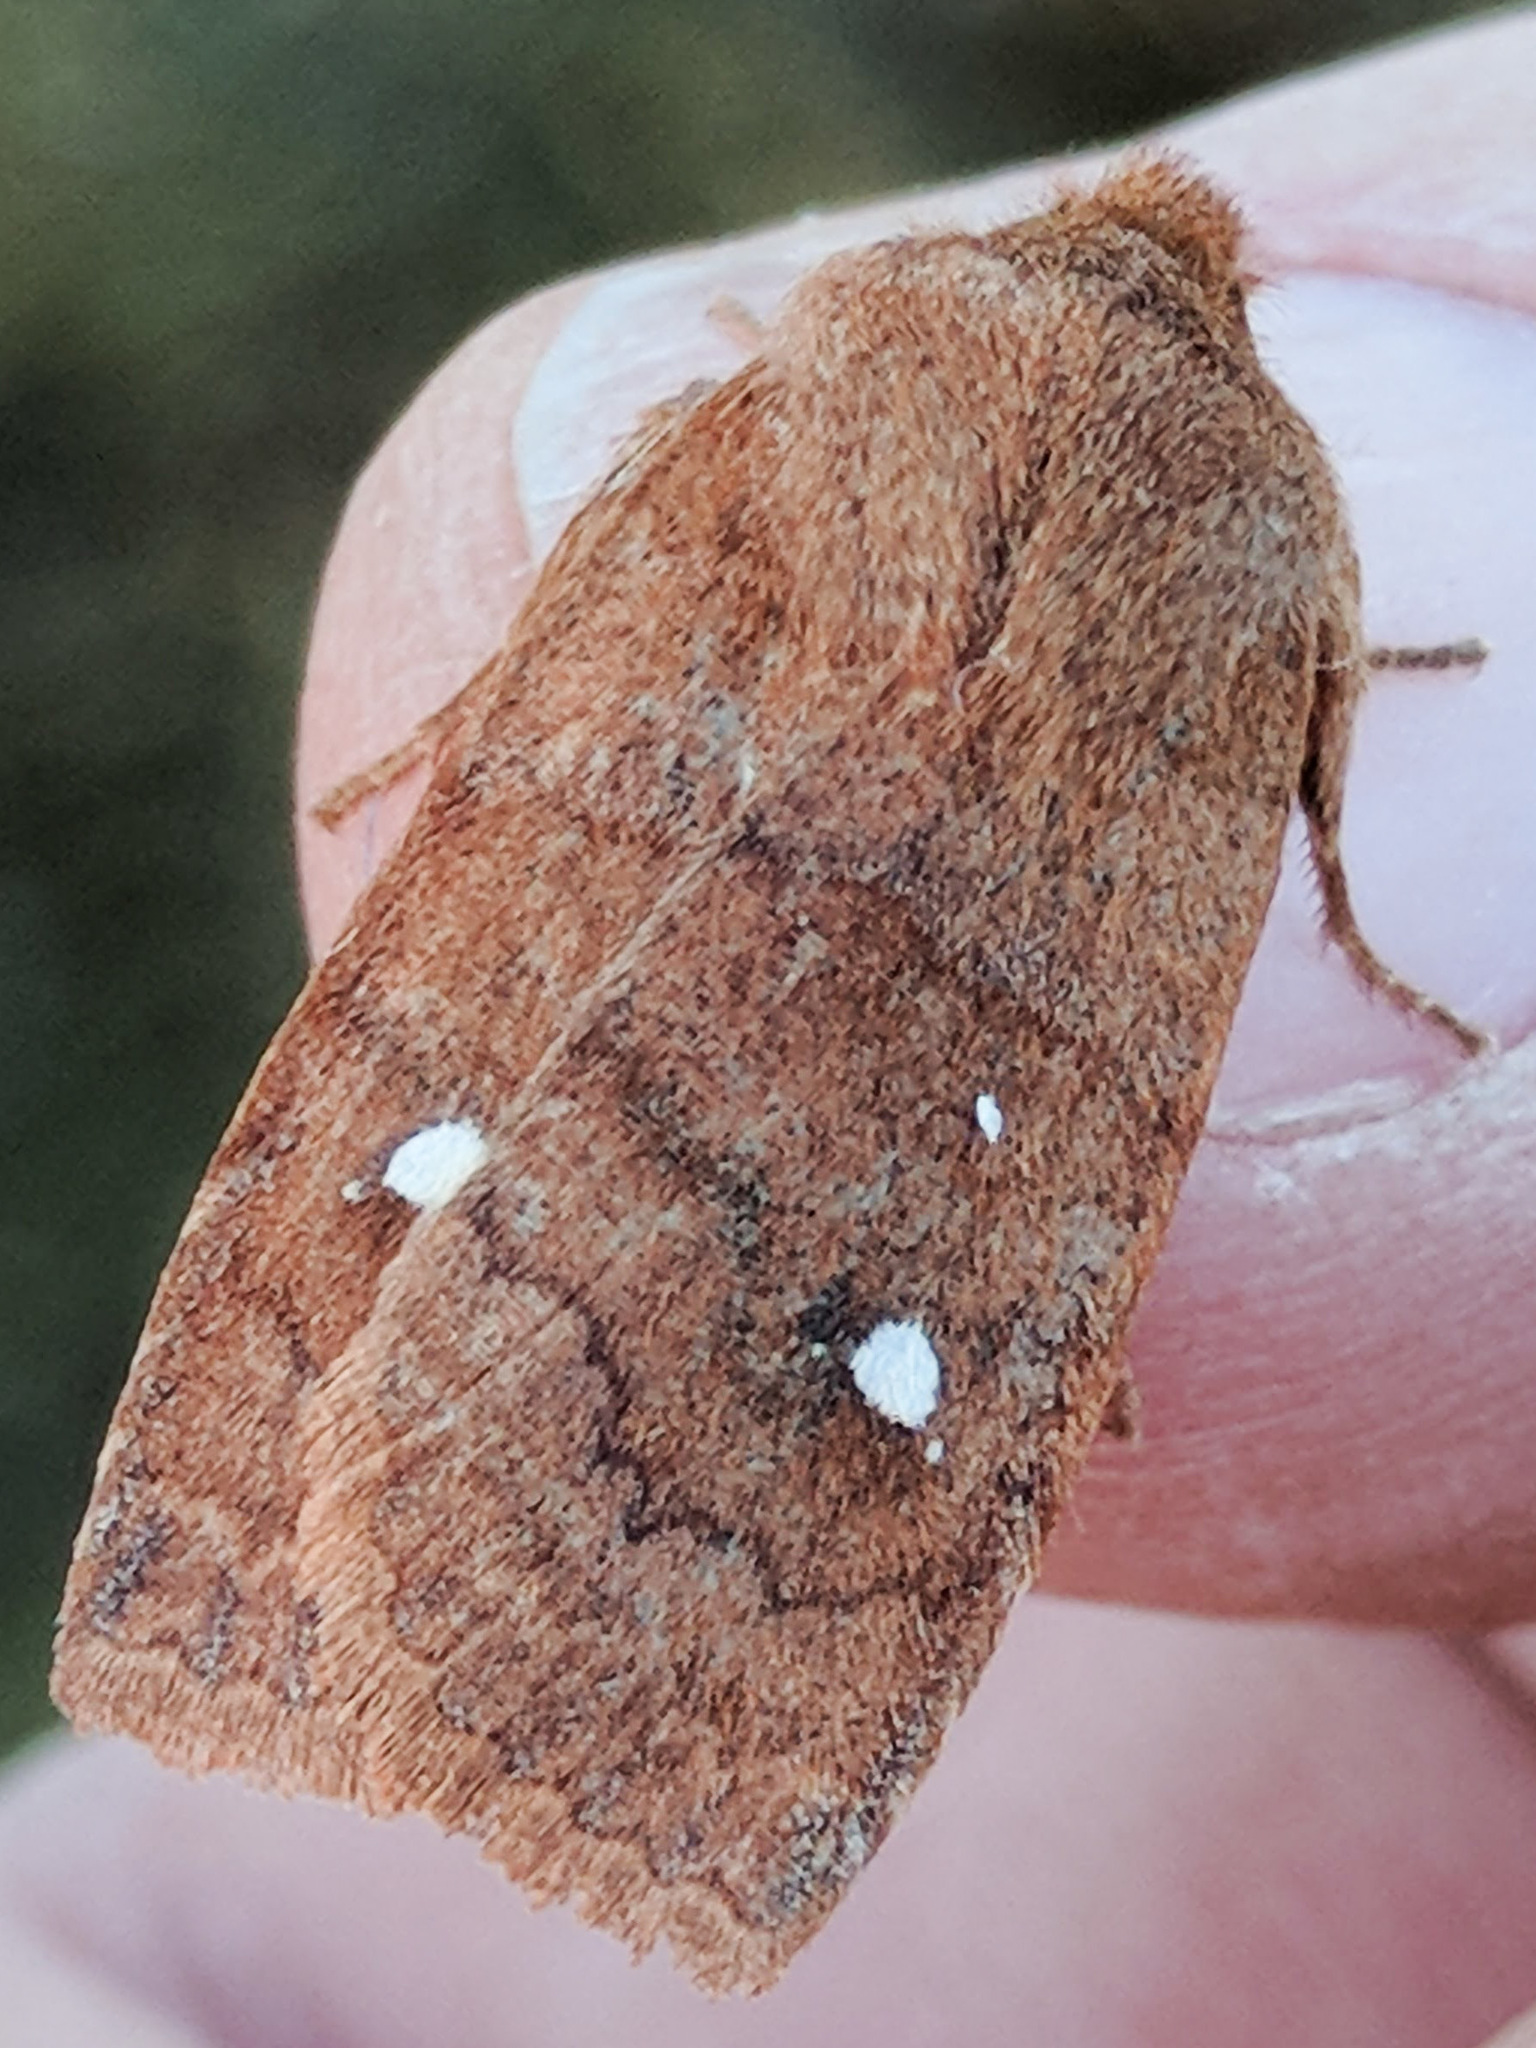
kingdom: Animalia
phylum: Arthropoda
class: Insecta
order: Lepidoptera
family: Noctuidae
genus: Eupsilia
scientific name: Eupsilia
